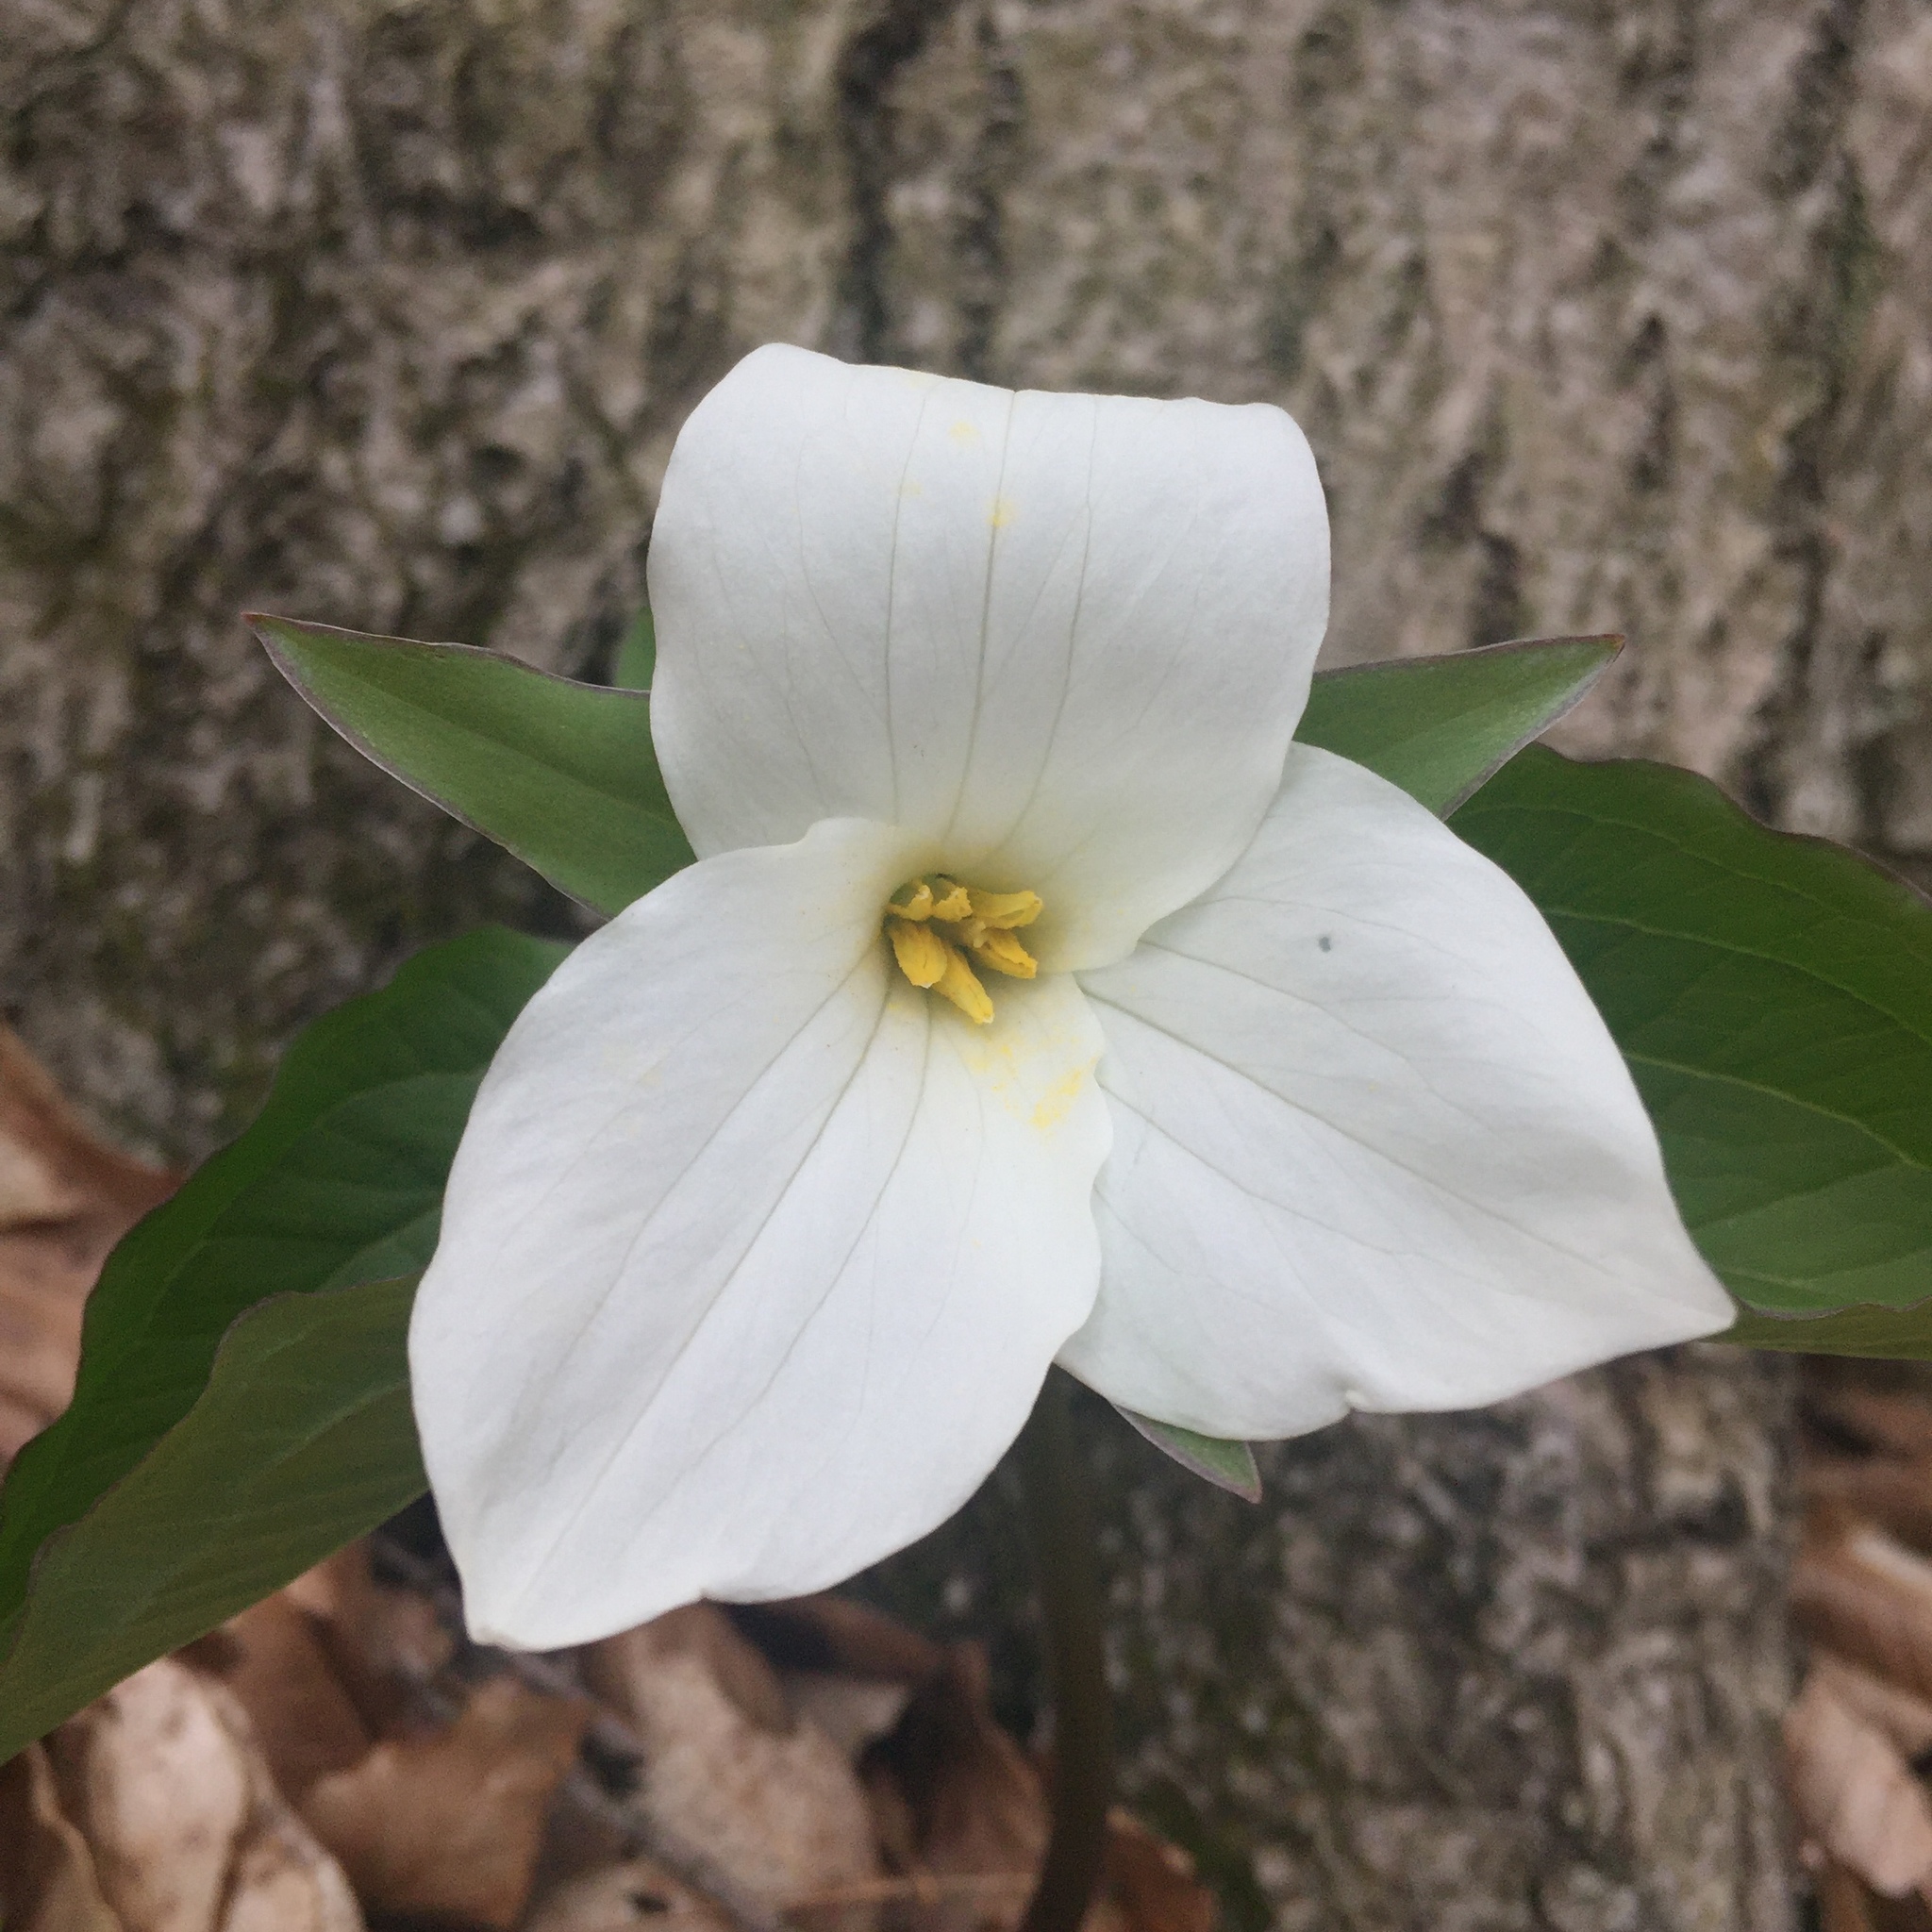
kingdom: Plantae
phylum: Tracheophyta
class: Liliopsida
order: Liliales
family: Melanthiaceae
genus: Trillium
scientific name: Trillium grandiflorum
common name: Great white trillium
